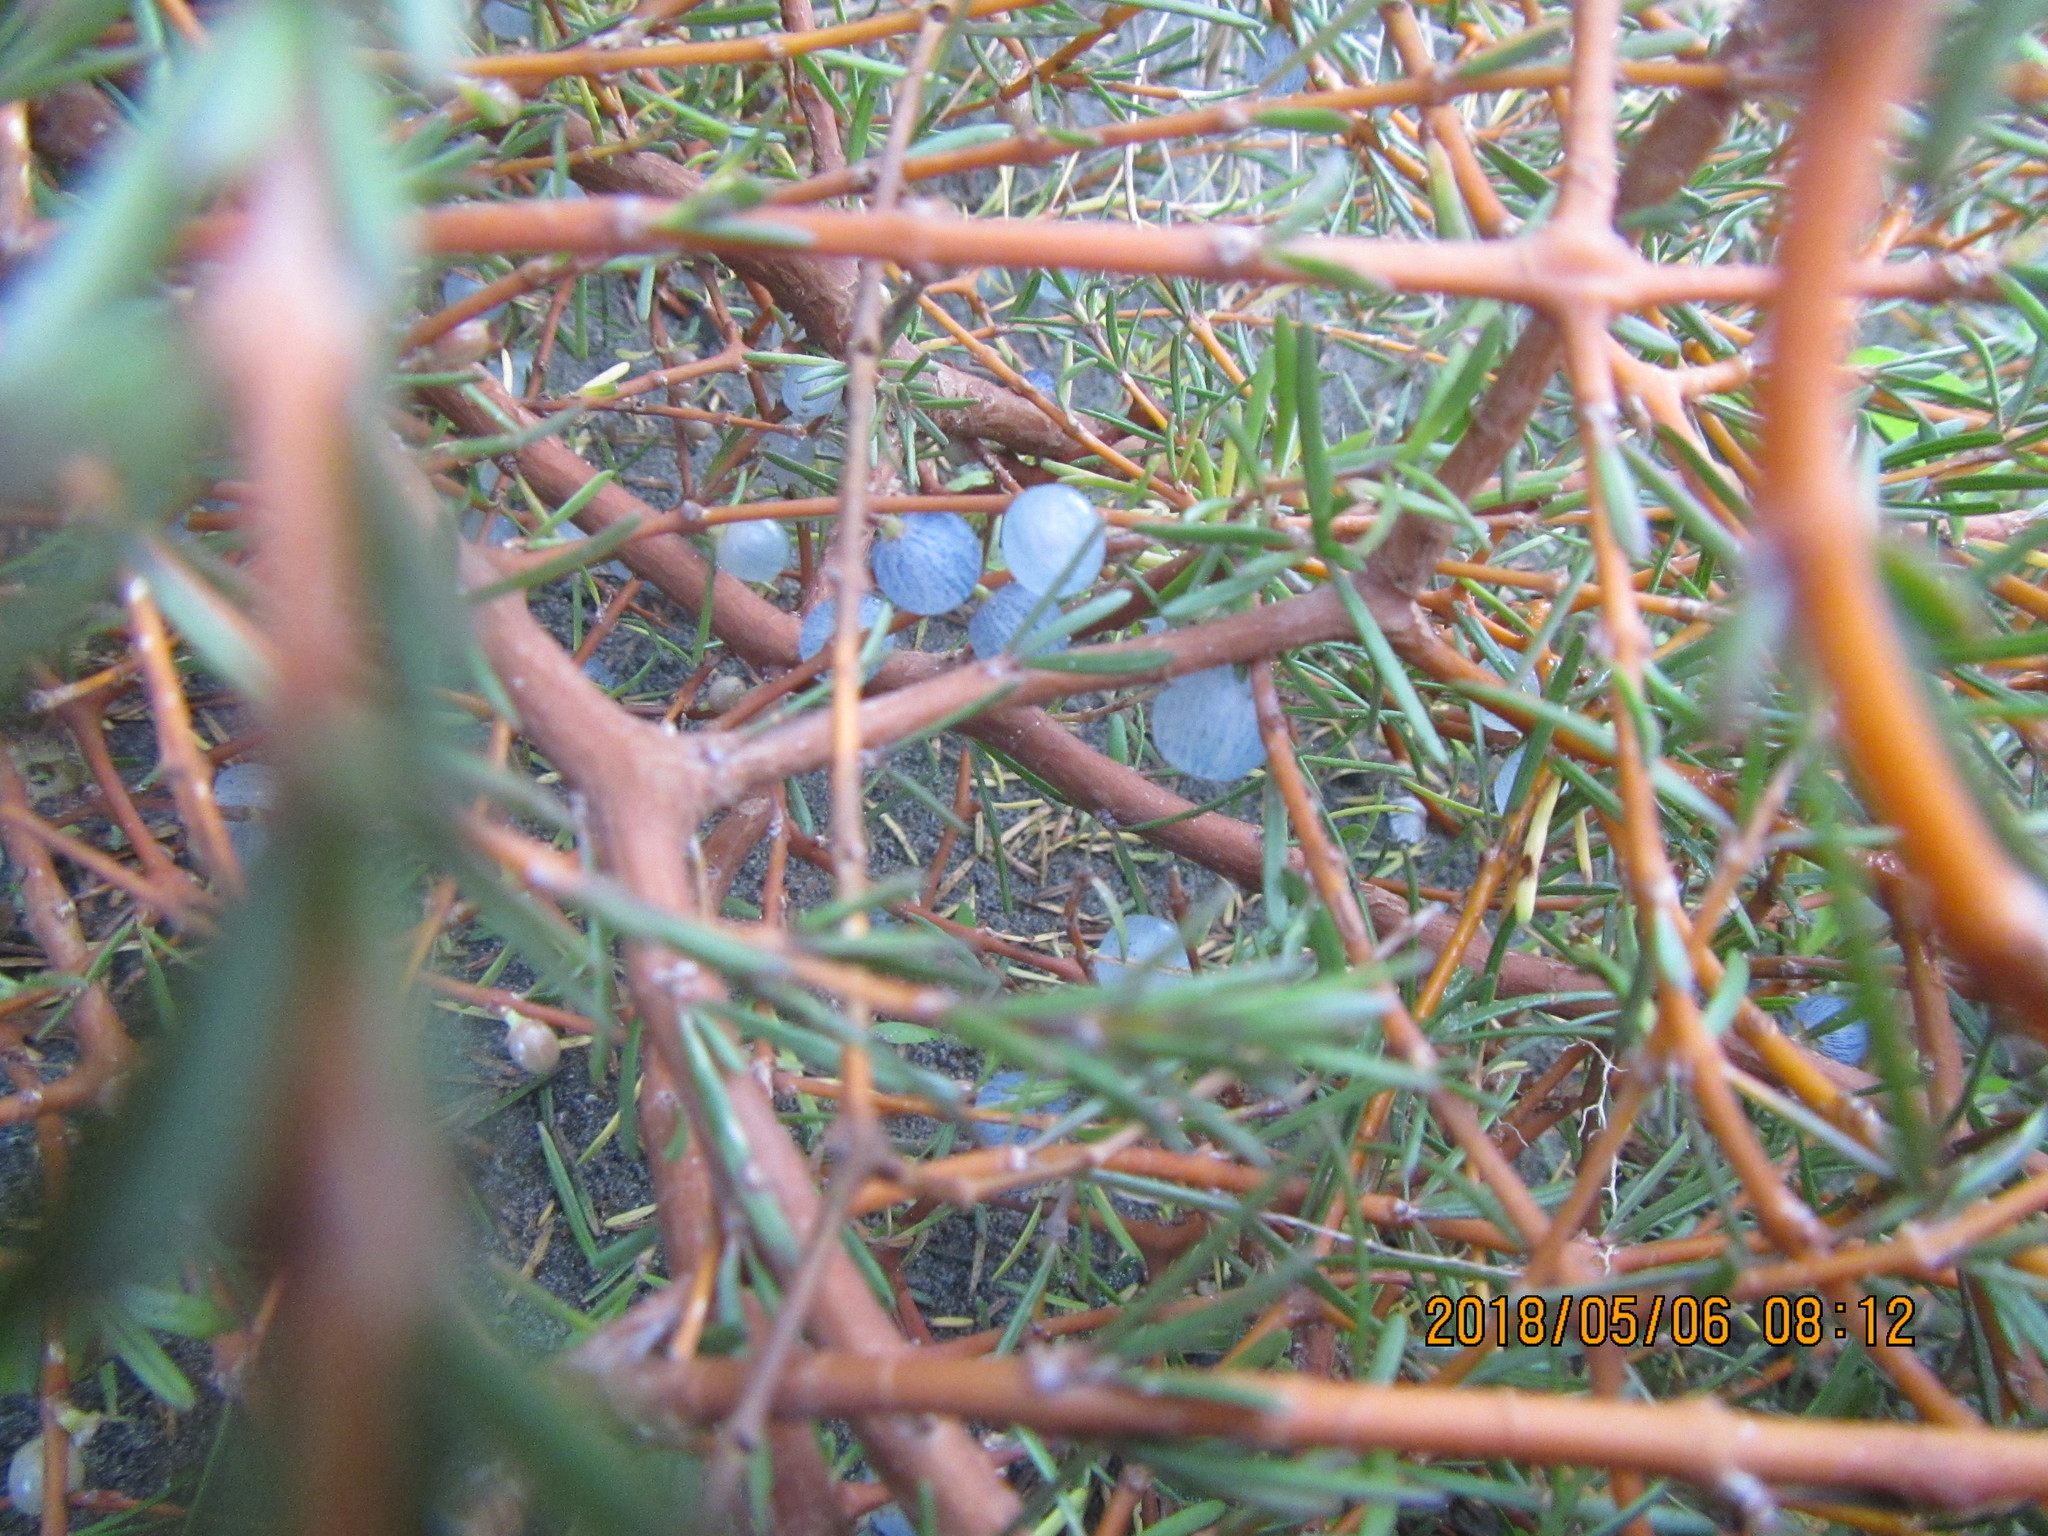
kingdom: Plantae
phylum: Tracheophyta
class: Magnoliopsida
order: Gentianales
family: Rubiaceae
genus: Coprosma
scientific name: Coprosma acerosa
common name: Sand coprosma
